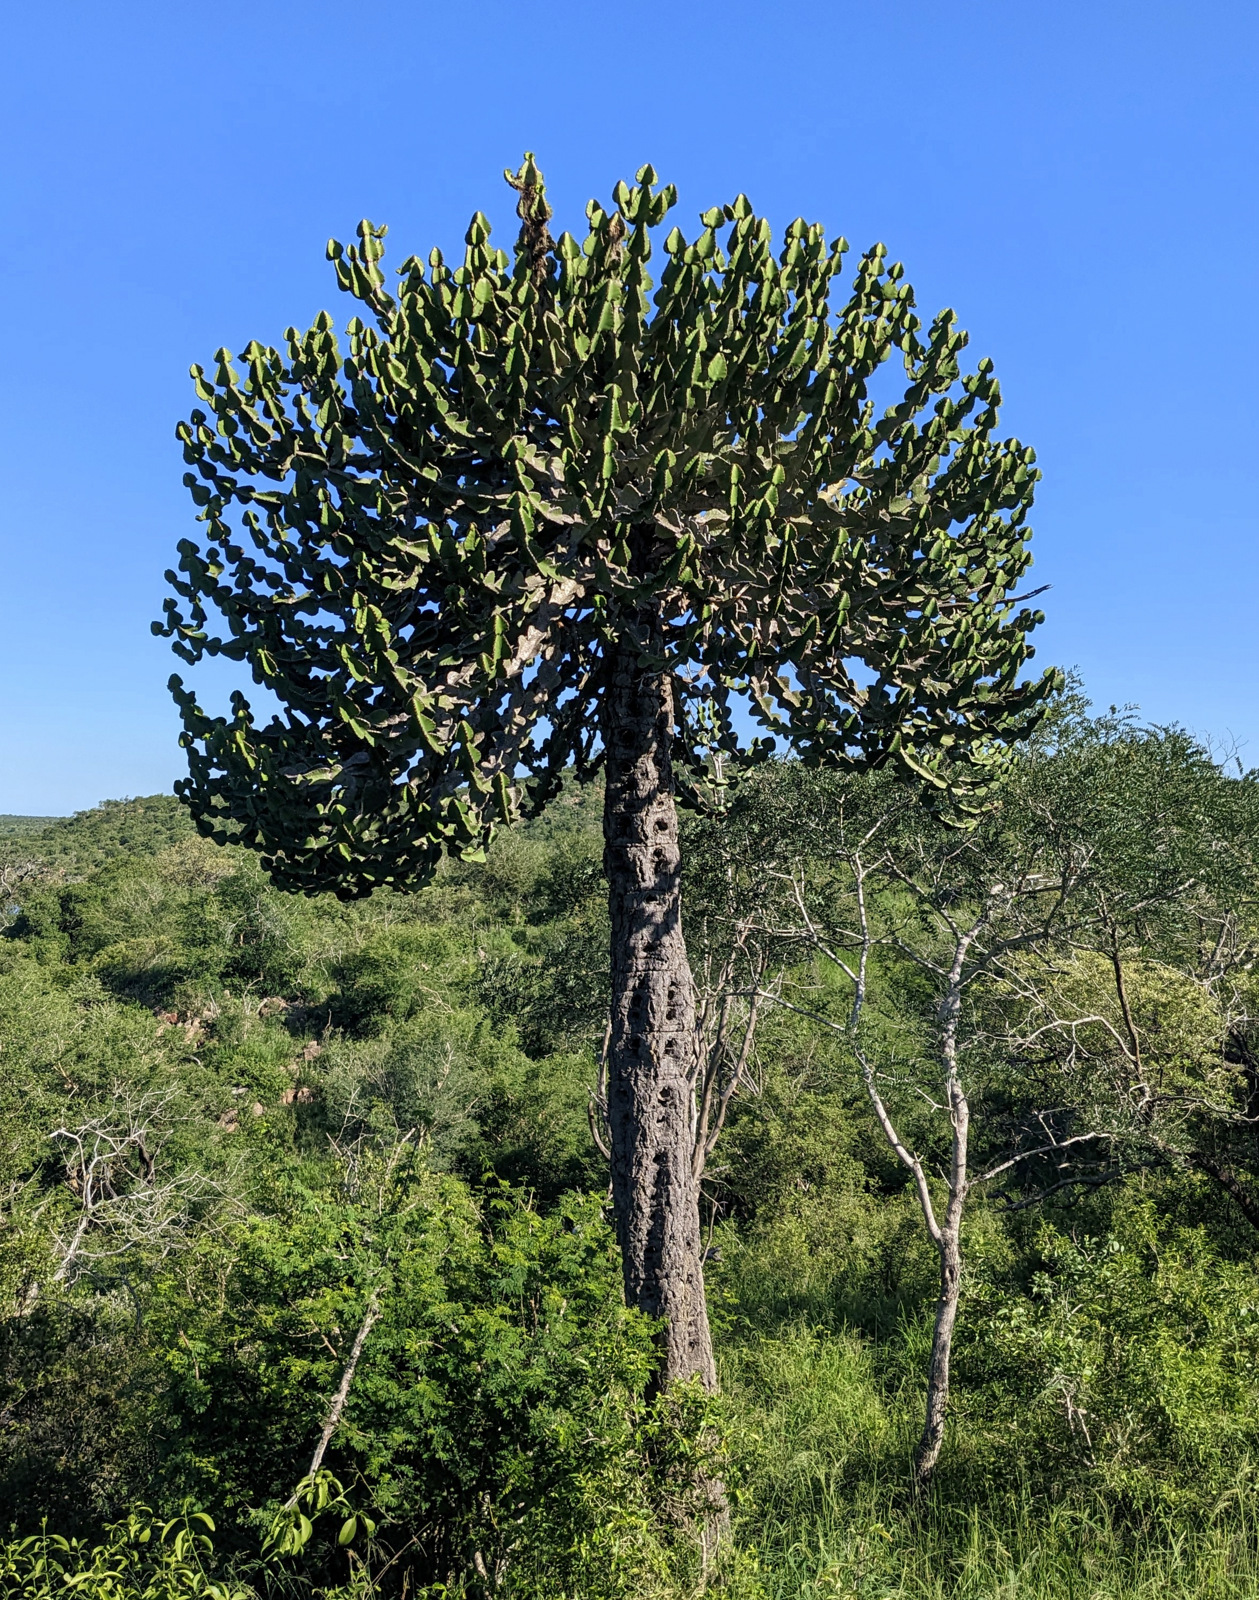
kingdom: Plantae
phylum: Tracheophyta
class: Magnoliopsida
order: Malpighiales
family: Euphorbiaceae
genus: Euphorbia
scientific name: Euphorbia cooperi
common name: Candelabra tree
